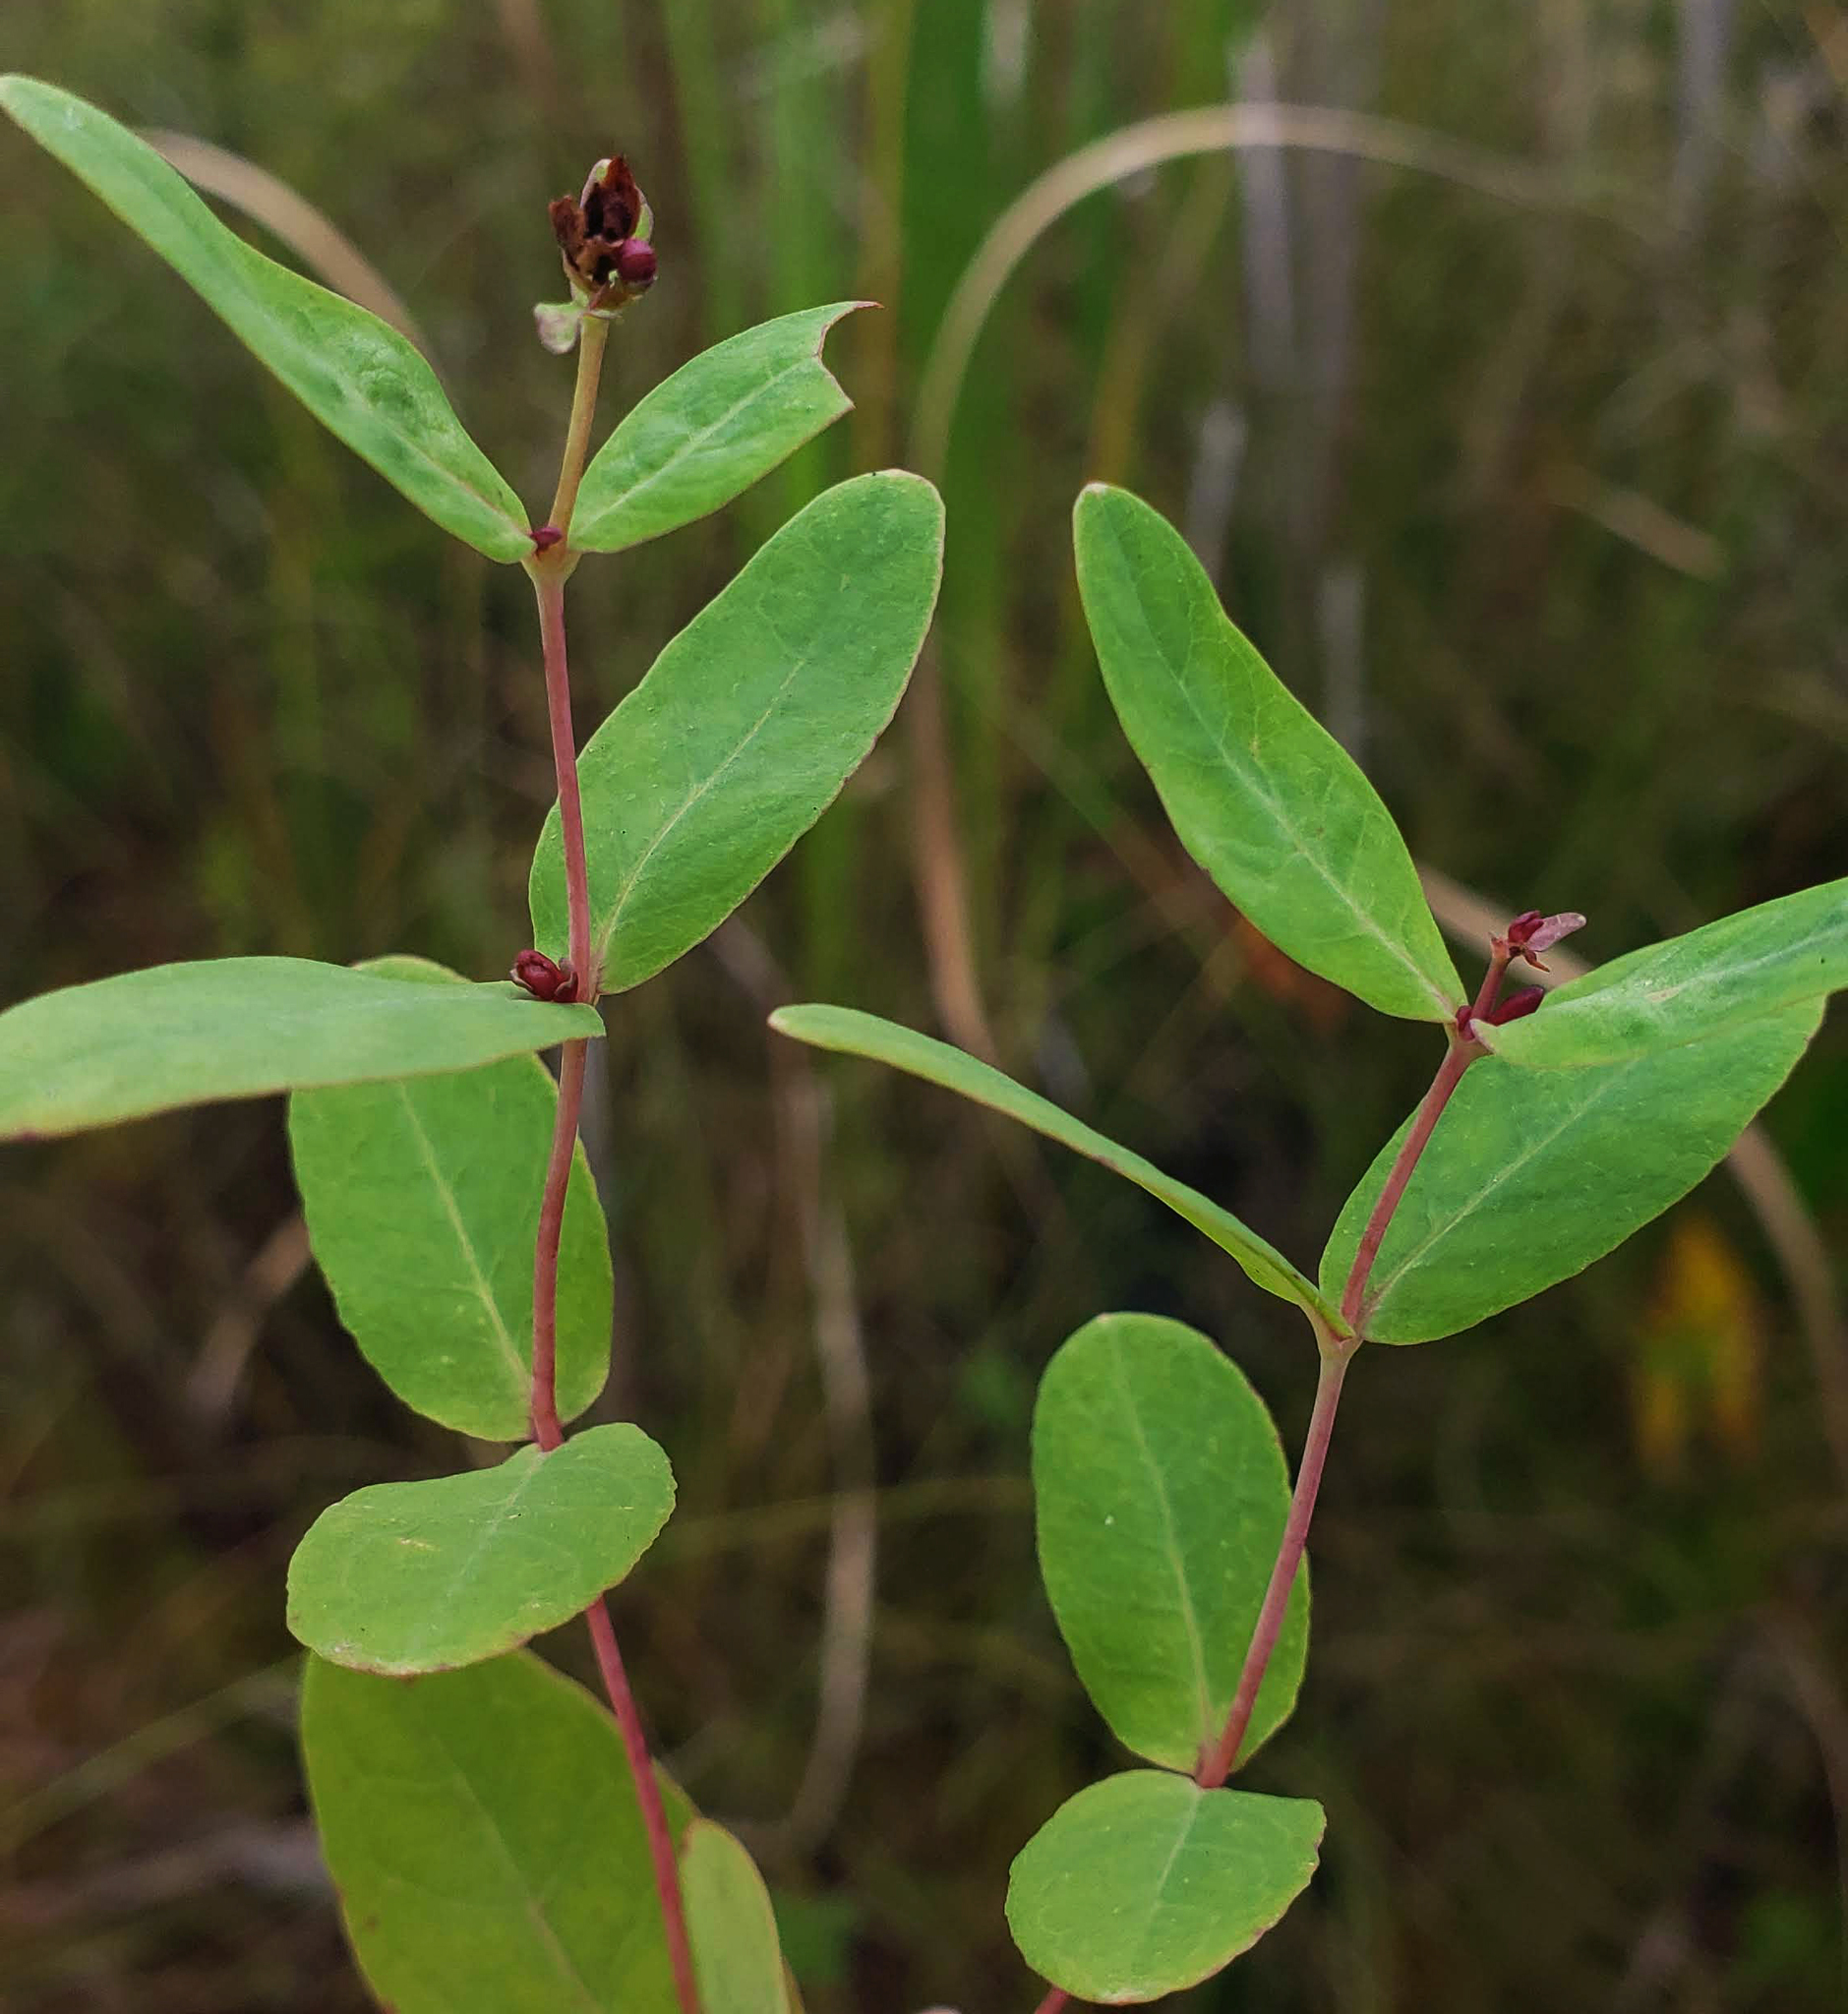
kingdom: Plantae
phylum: Tracheophyta
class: Magnoliopsida
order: Malpighiales
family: Hypericaceae
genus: Triadenum
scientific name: Triadenum fraseri
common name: Fraser's marsh st. johnswort
